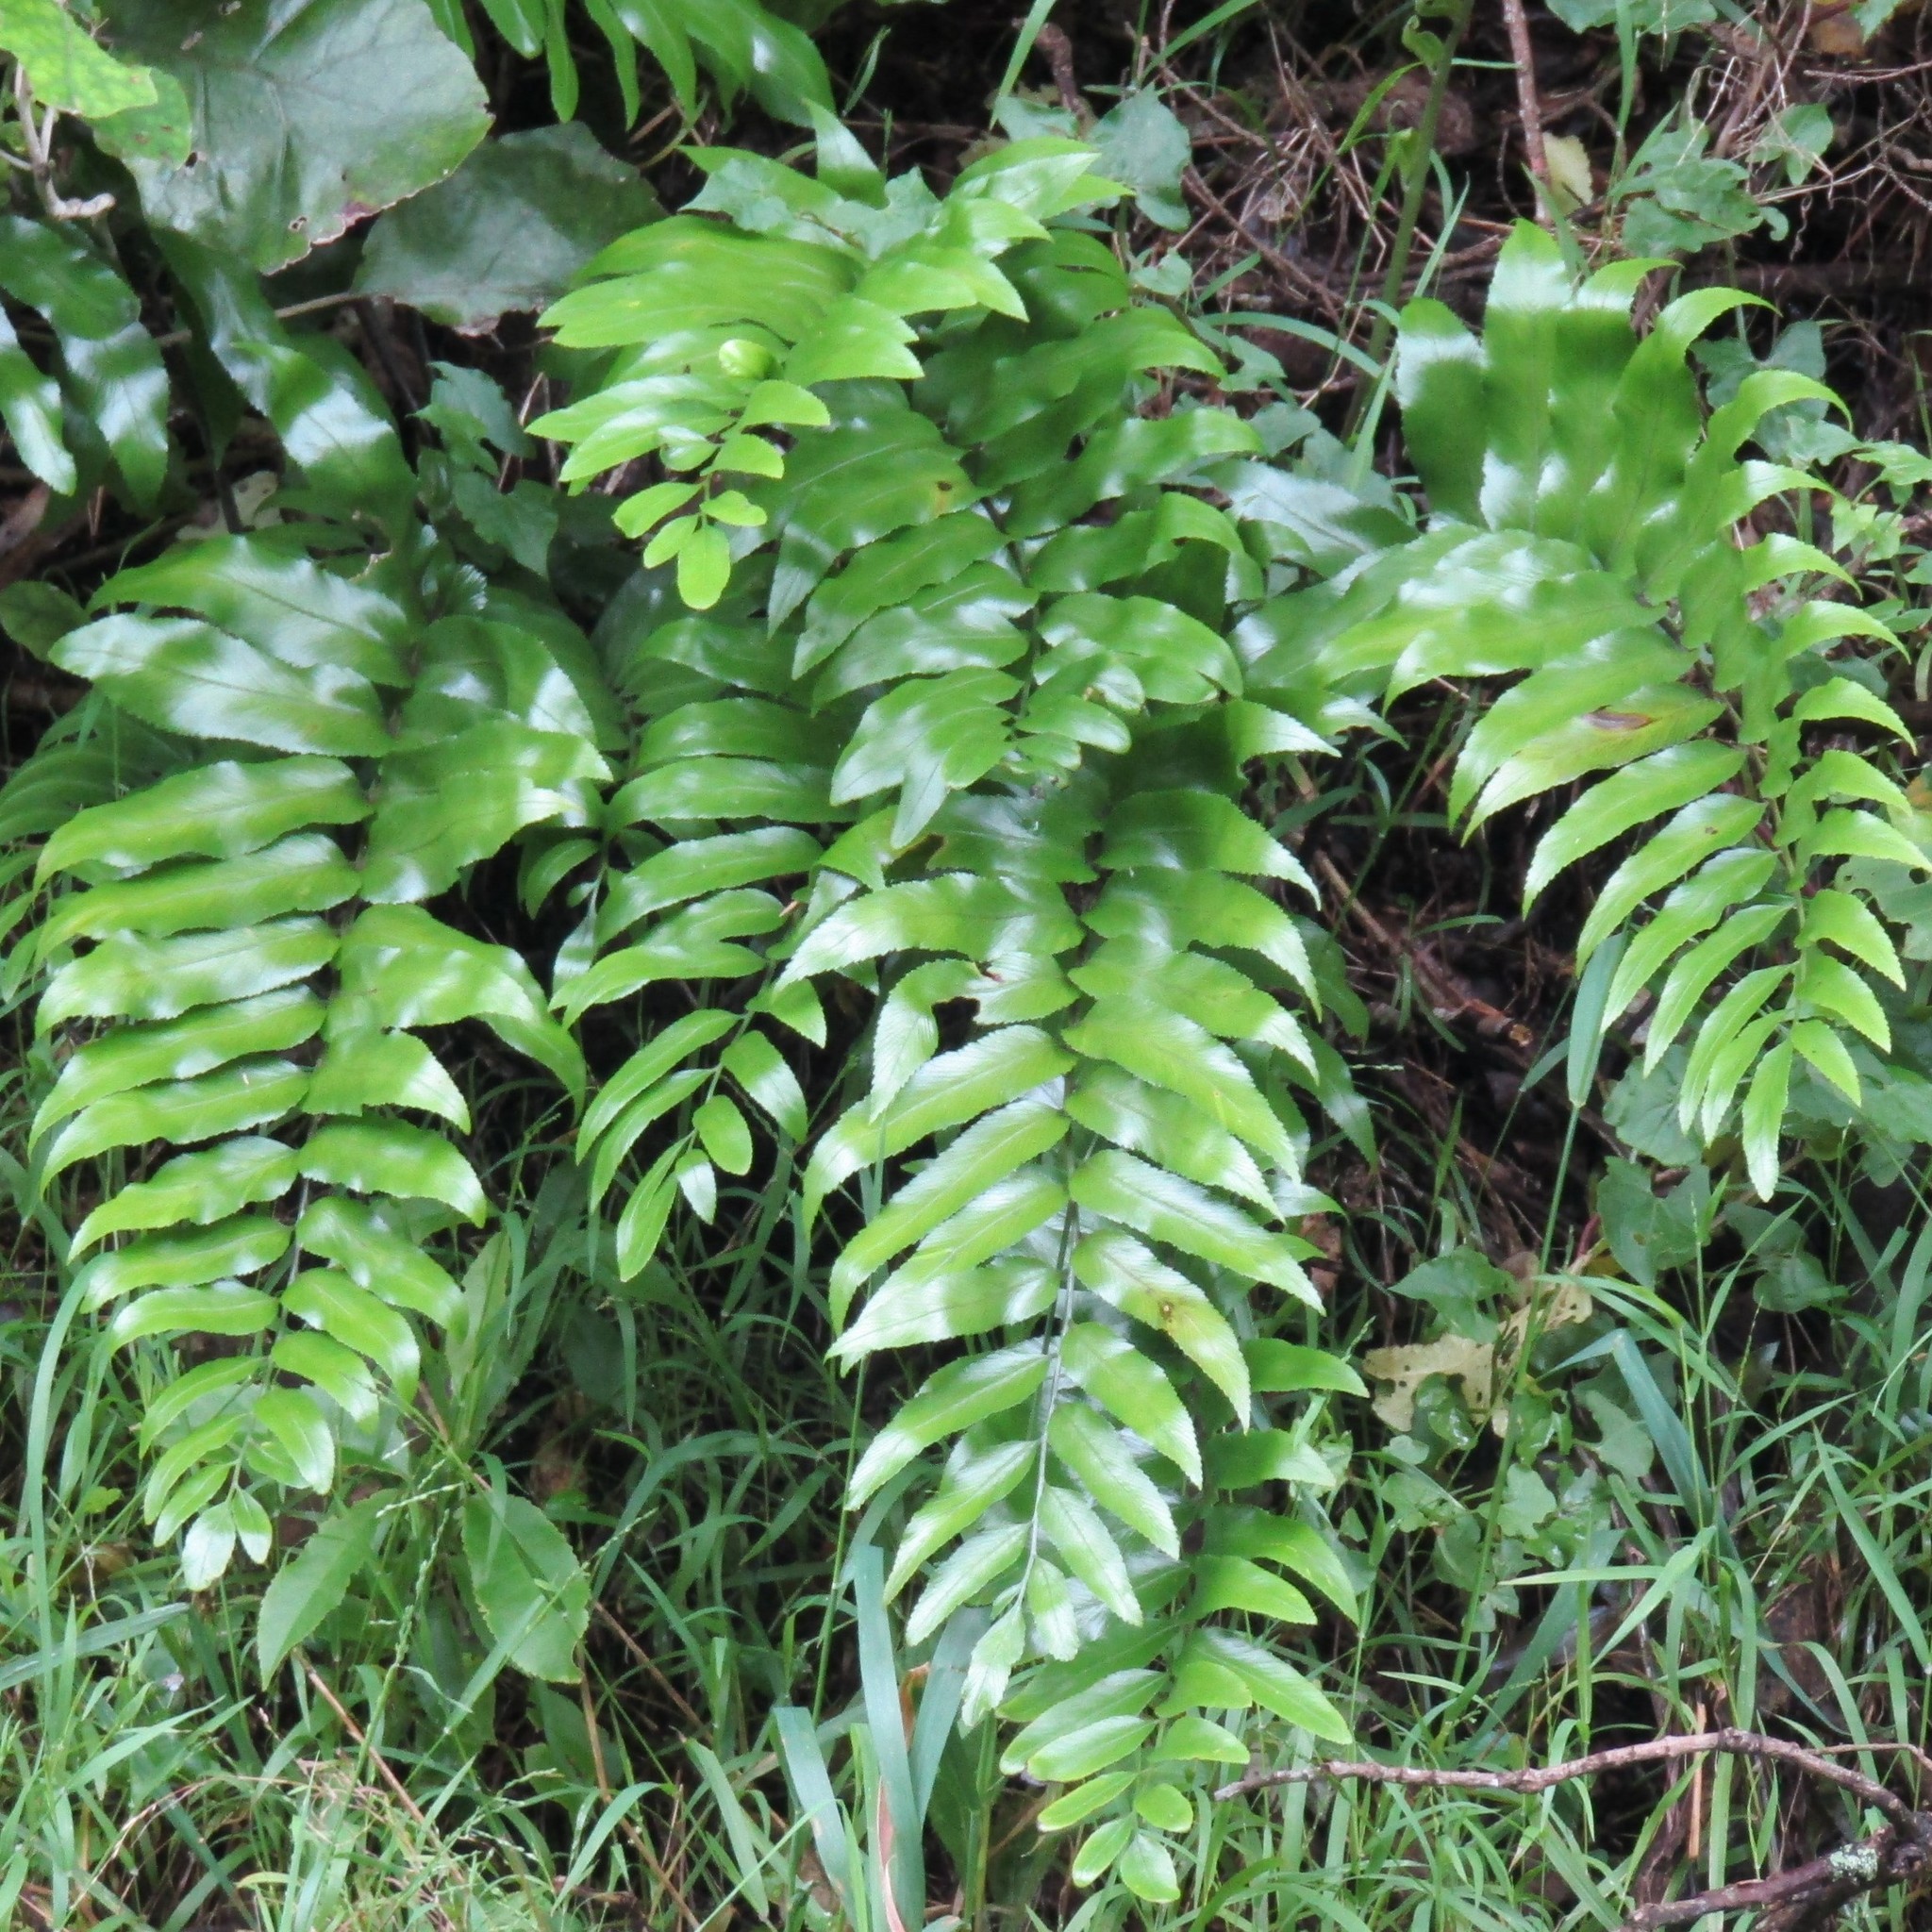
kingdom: Plantae
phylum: Tracheophyta
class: Polypodiopsida
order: Polypodiales
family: Aspleniaceae
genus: Asplenium
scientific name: Asplenium oblongifolium
